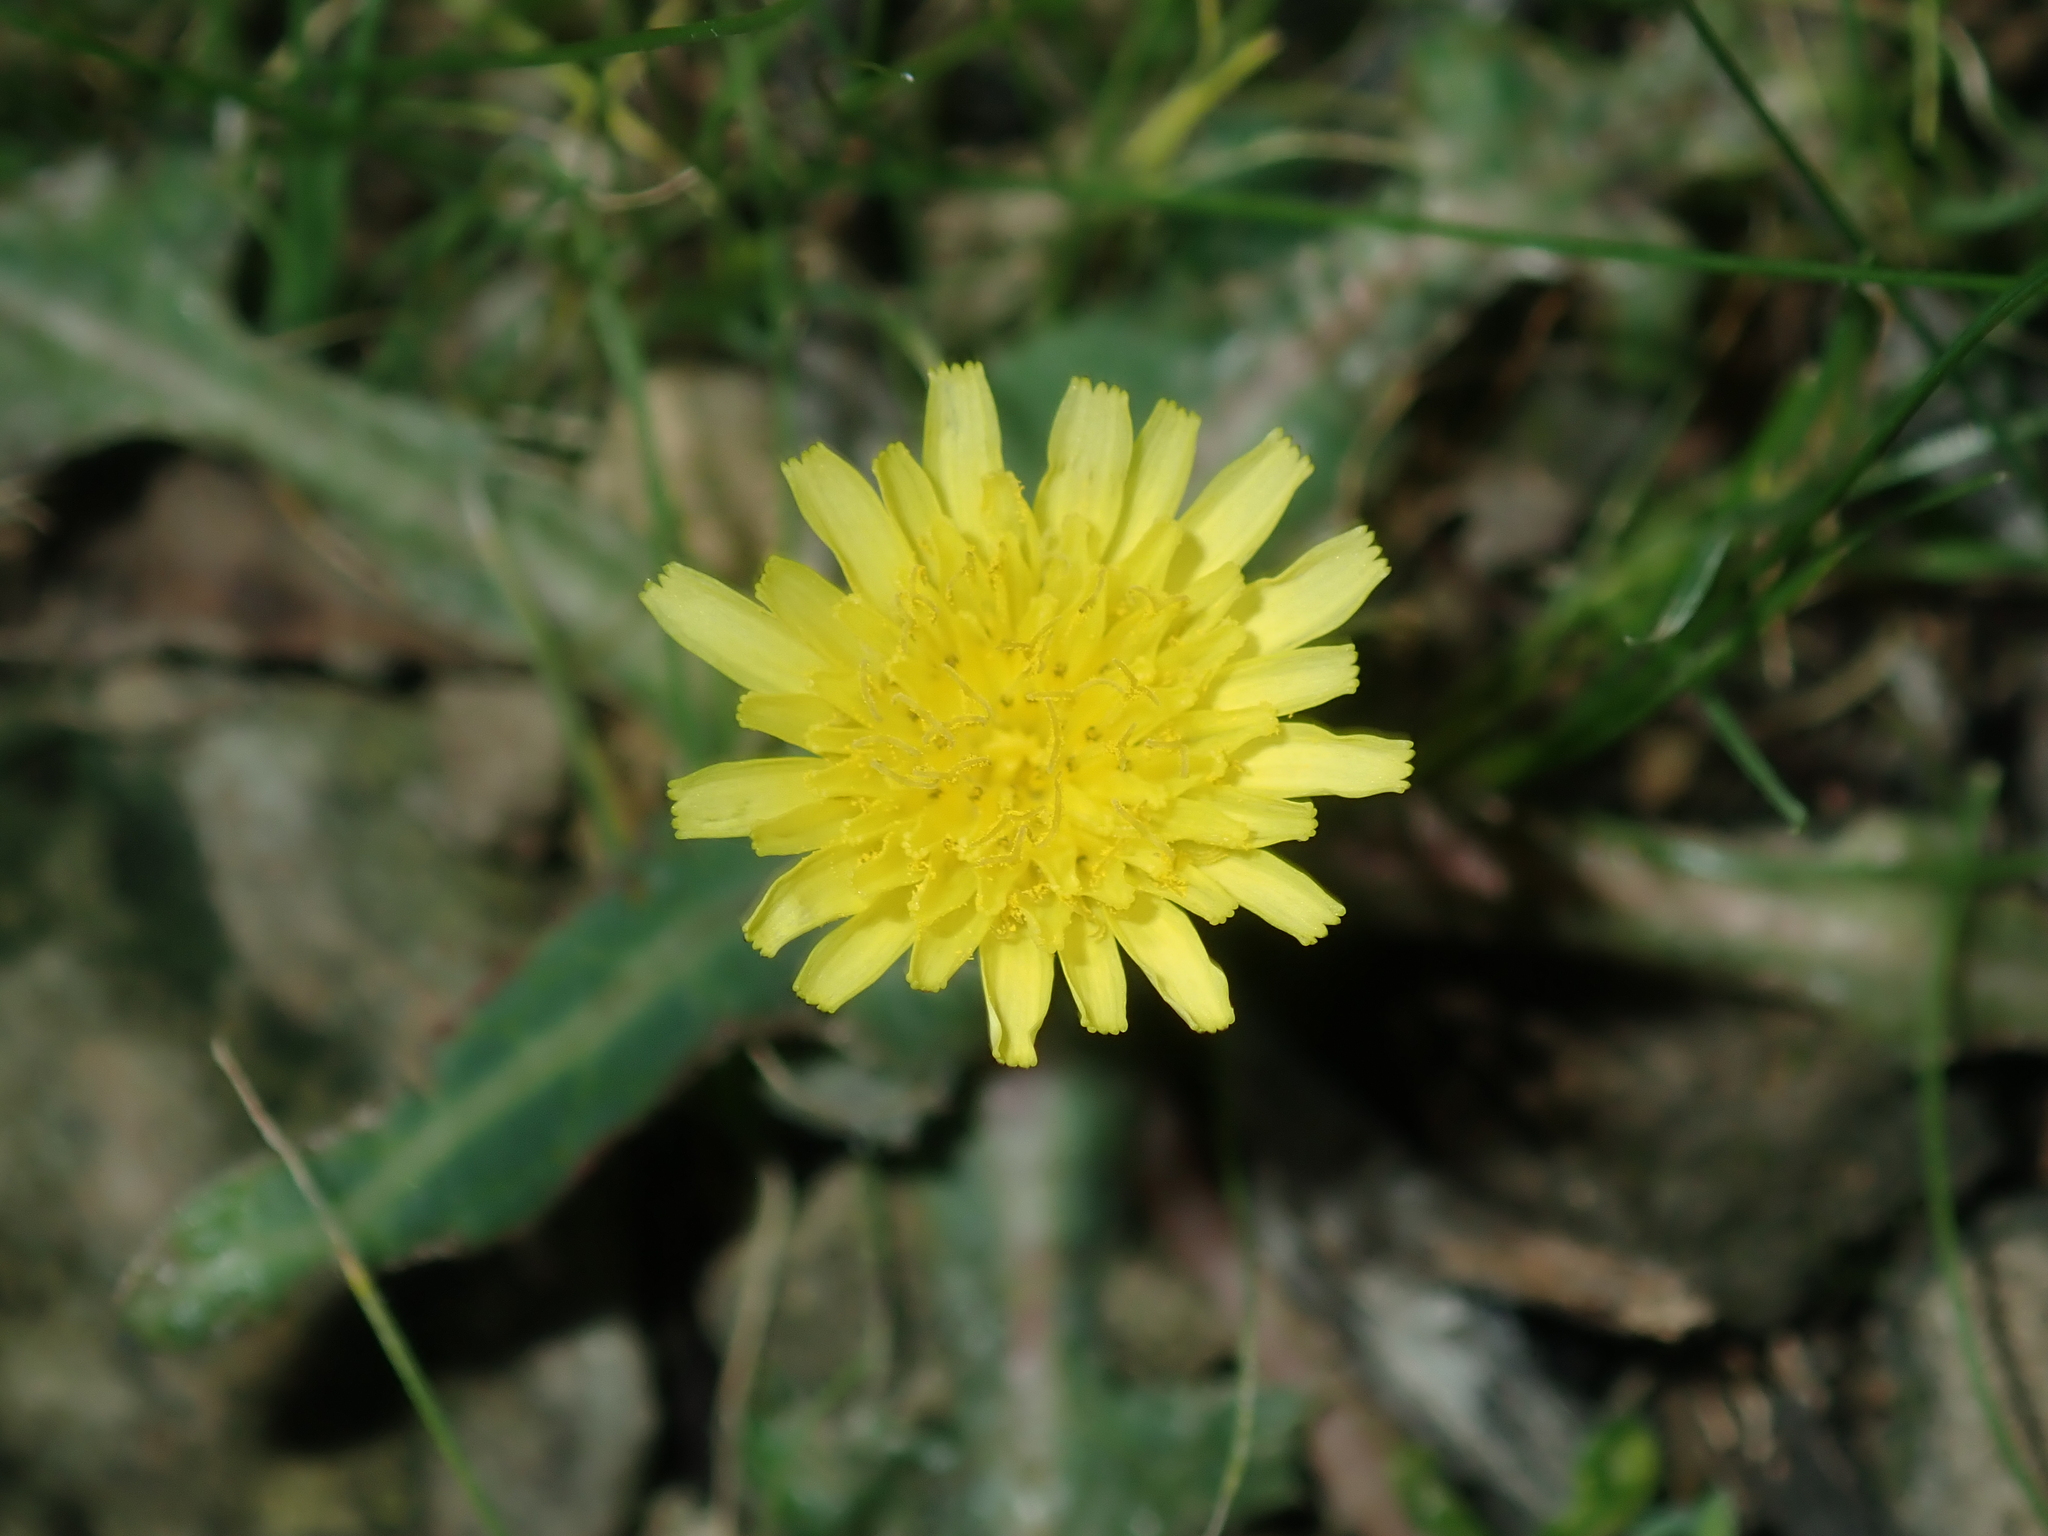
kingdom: Plantae
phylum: Tracheophyta
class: Magnoliopsida
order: Asterales
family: Asteraceae
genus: Sonchus
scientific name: Sonchus oleraceus
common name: Common sowthistle
